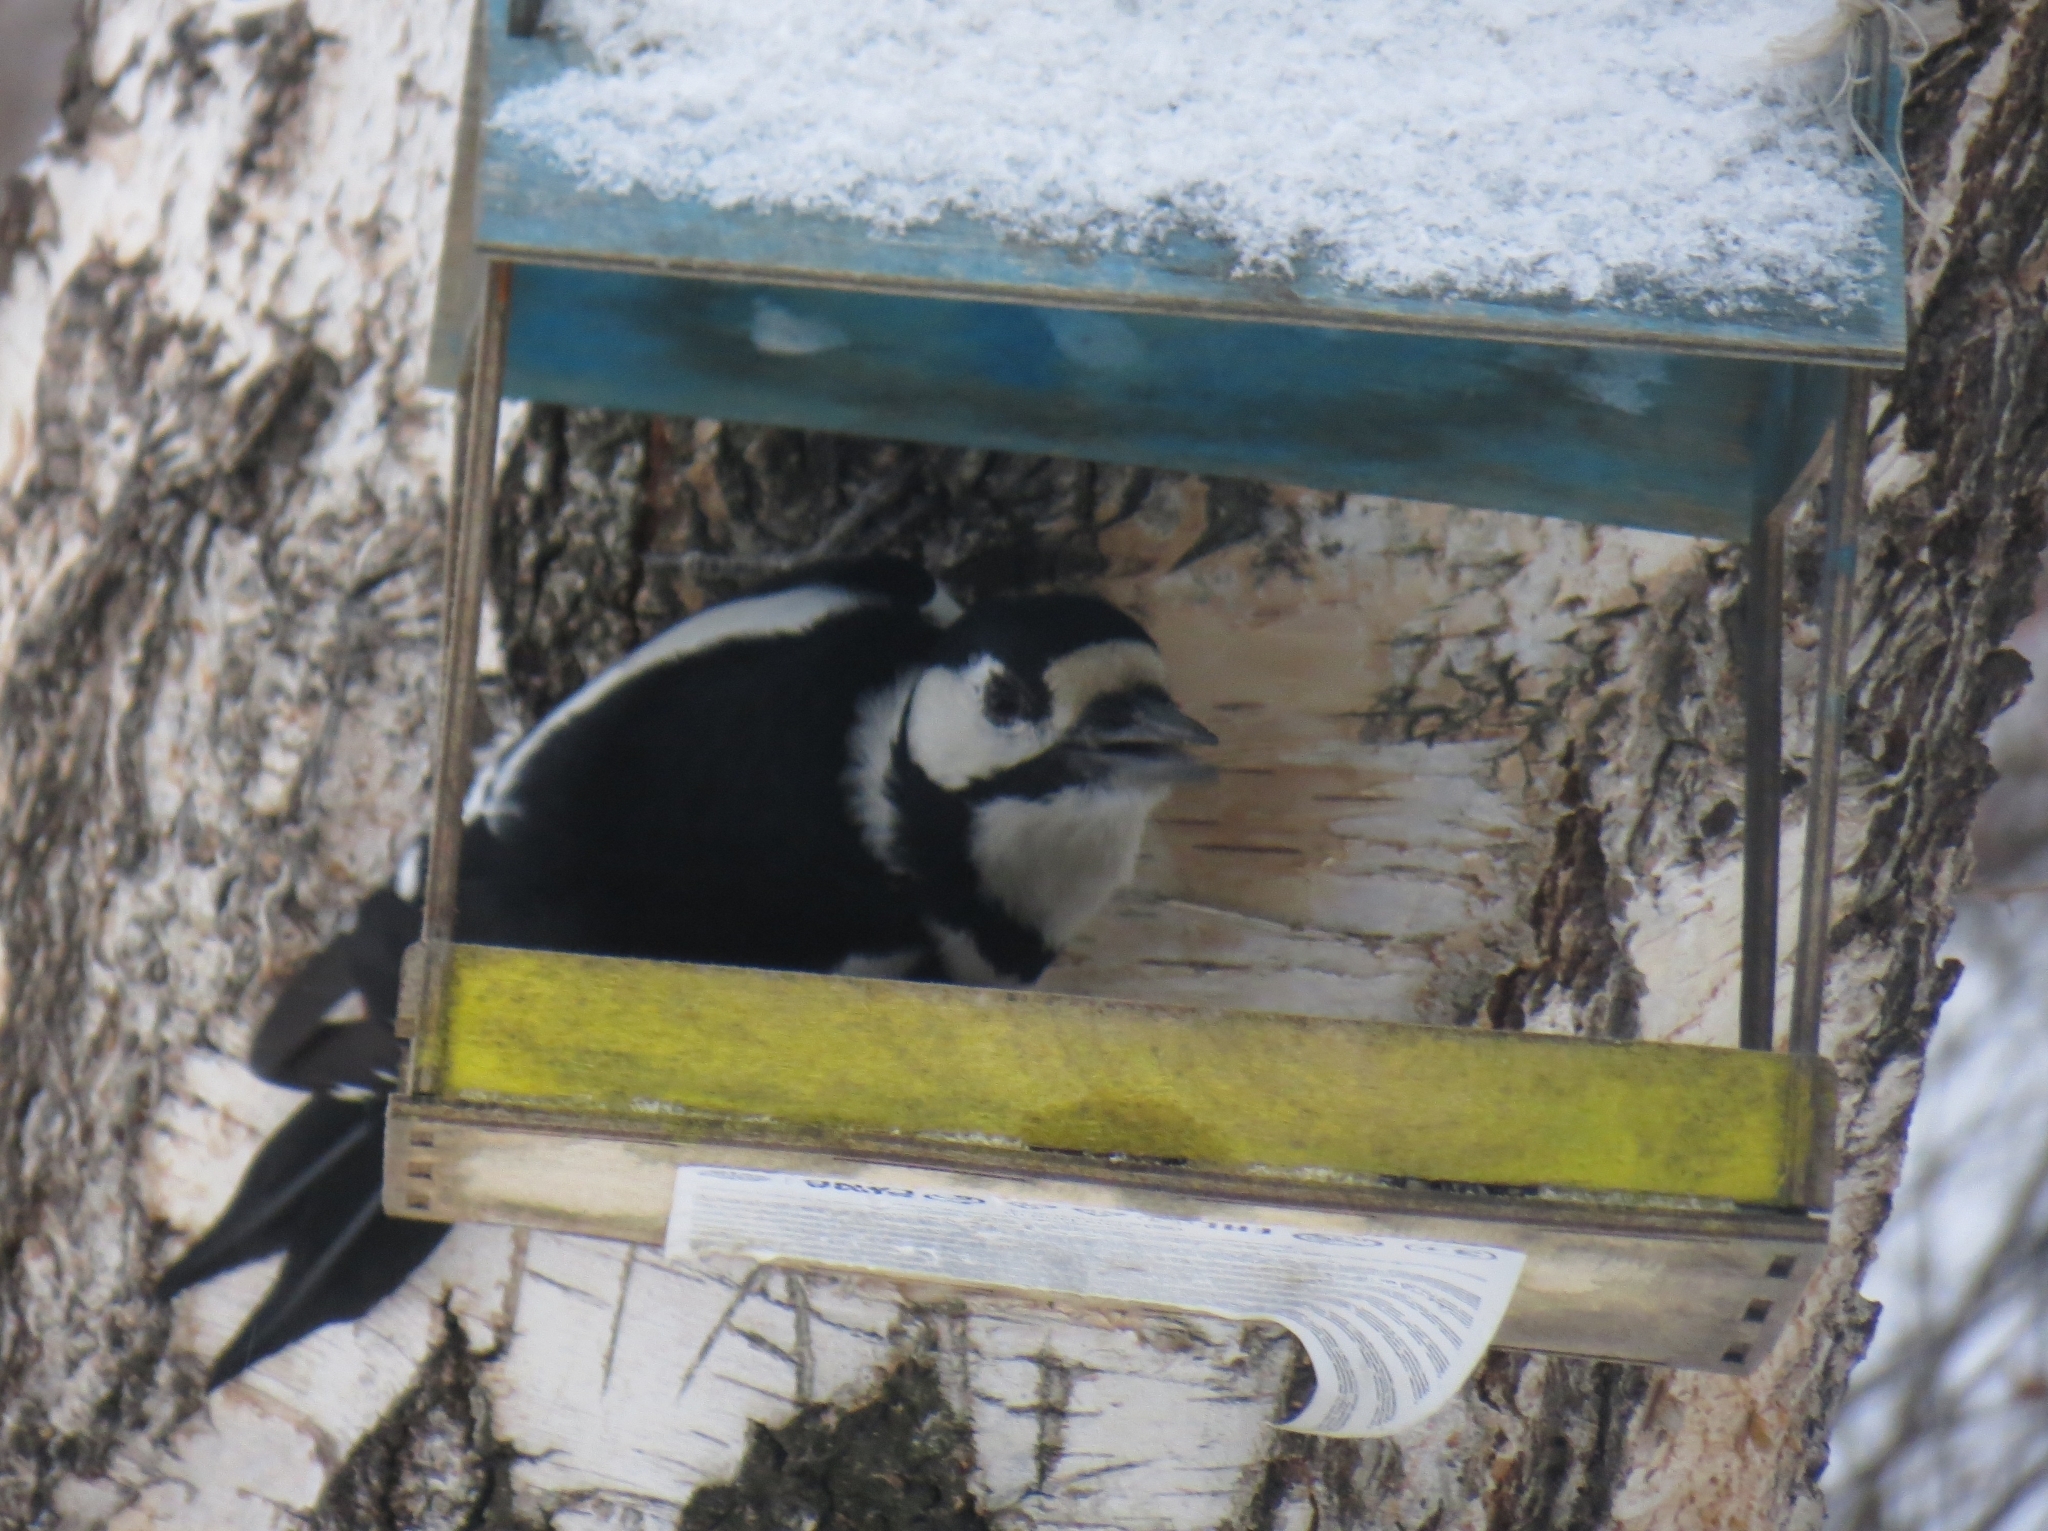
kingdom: Animalia
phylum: Chordata
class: Aves
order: Piciformes
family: Picidae
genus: Dendrocopos
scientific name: Dendrocopos major
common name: Great spotted woodpecker
